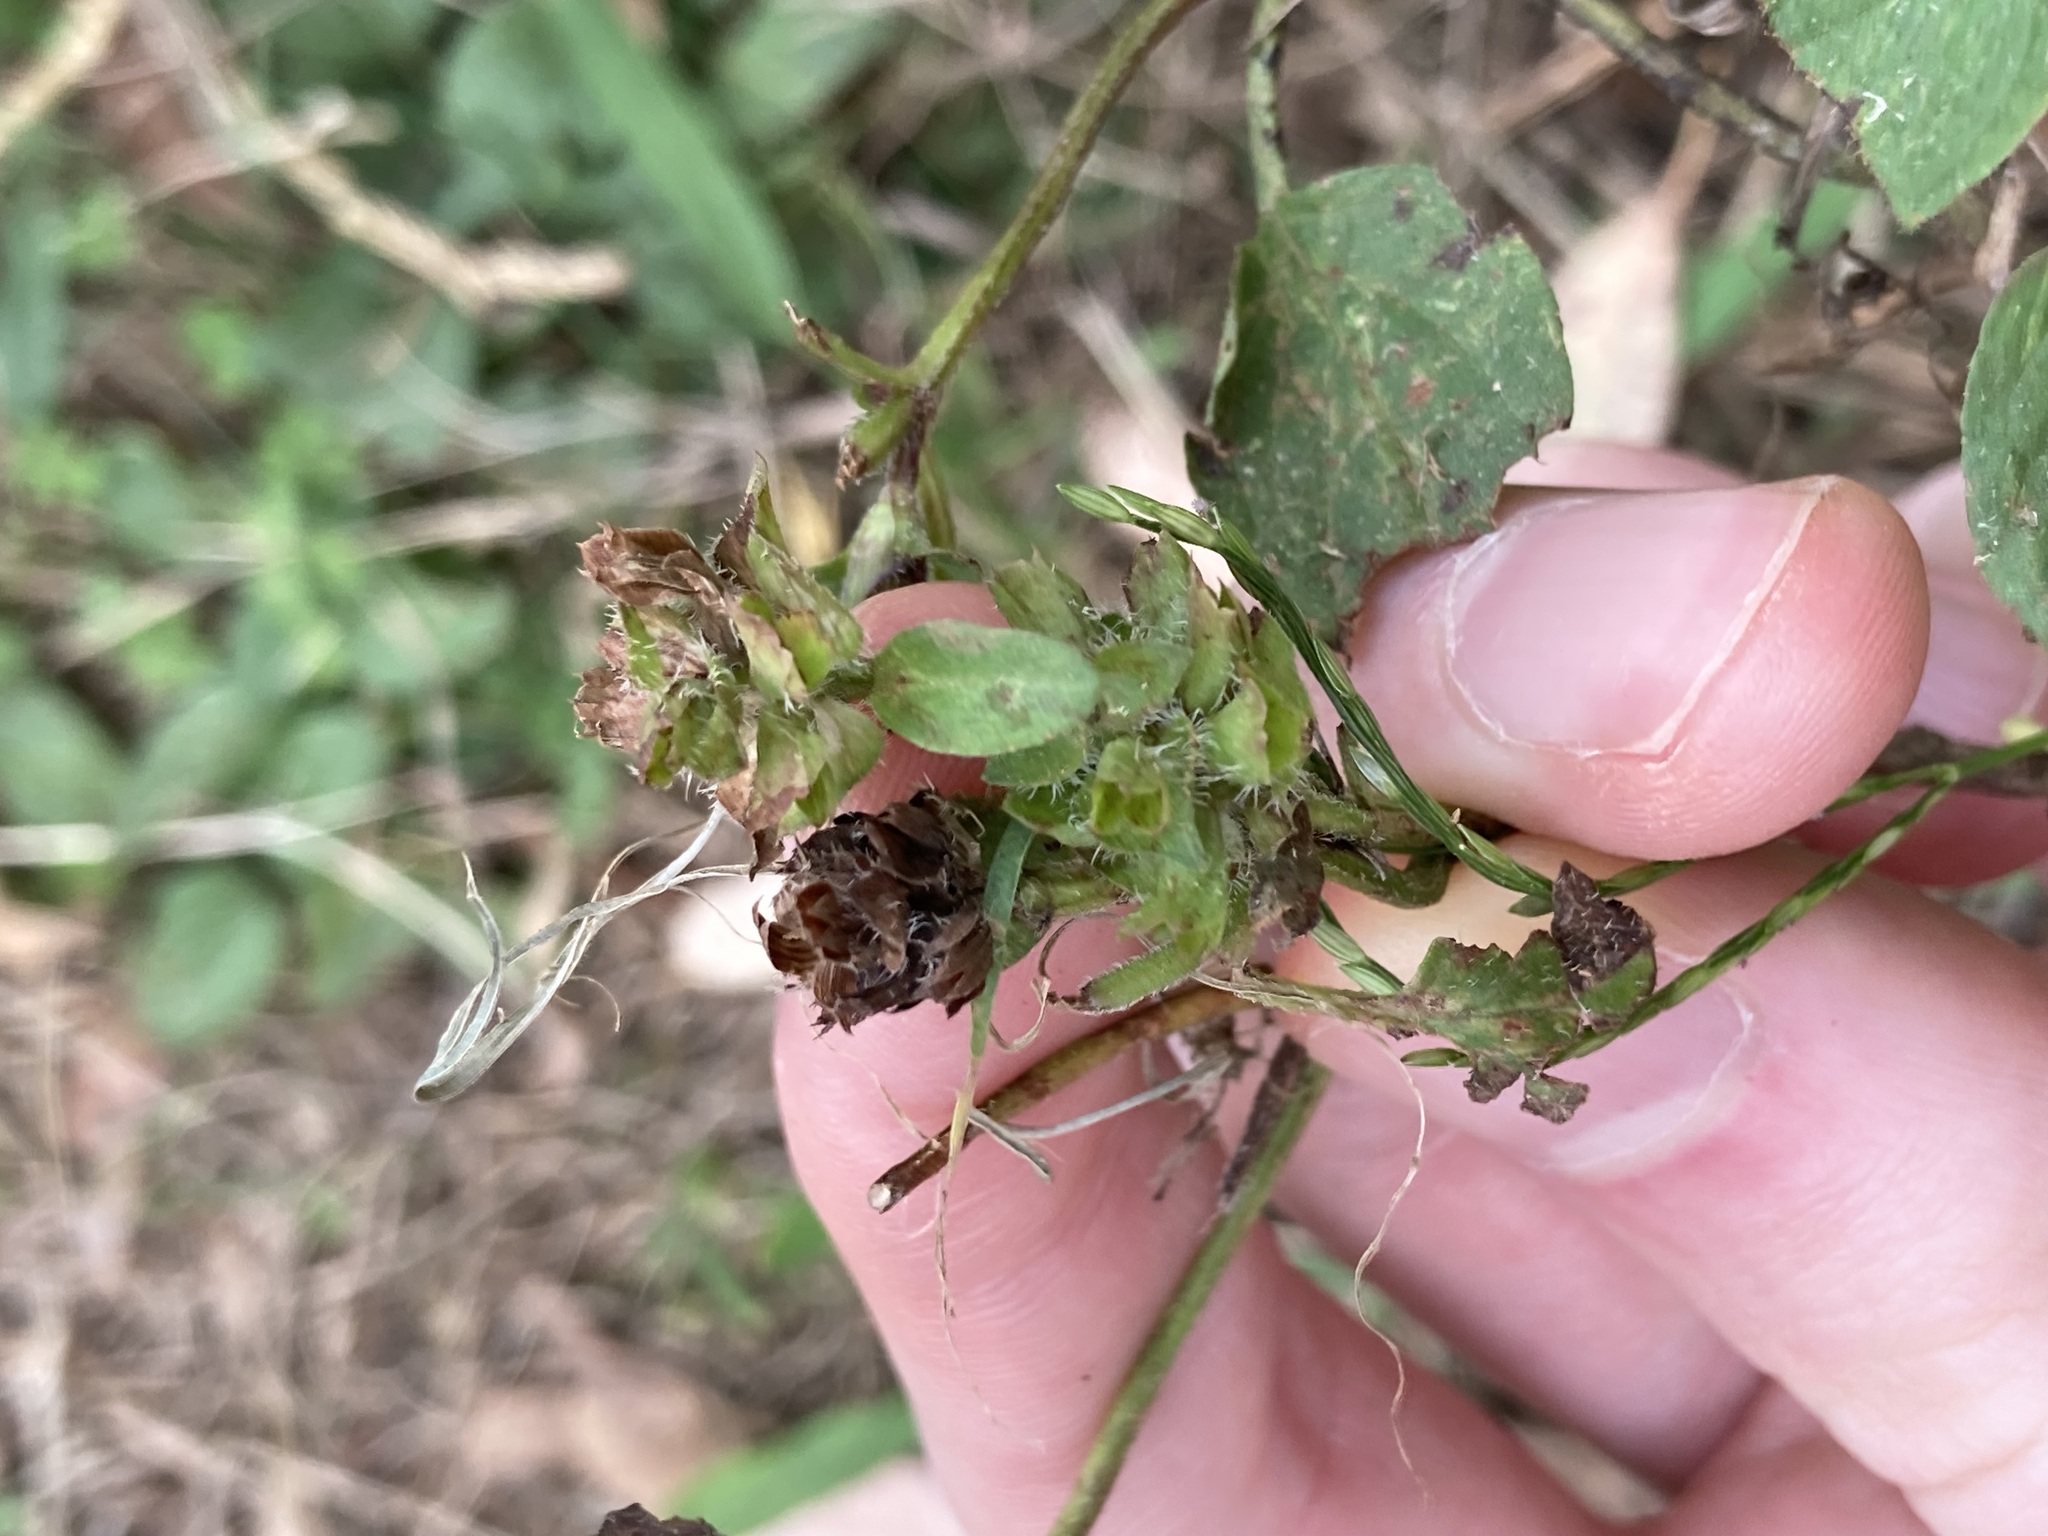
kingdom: Plantae
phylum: Tracheophyta
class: Magnoliopsida
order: Lamiales
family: Lamiaceae
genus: Prunella
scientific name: Prunella vulgaris
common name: Heal-all
